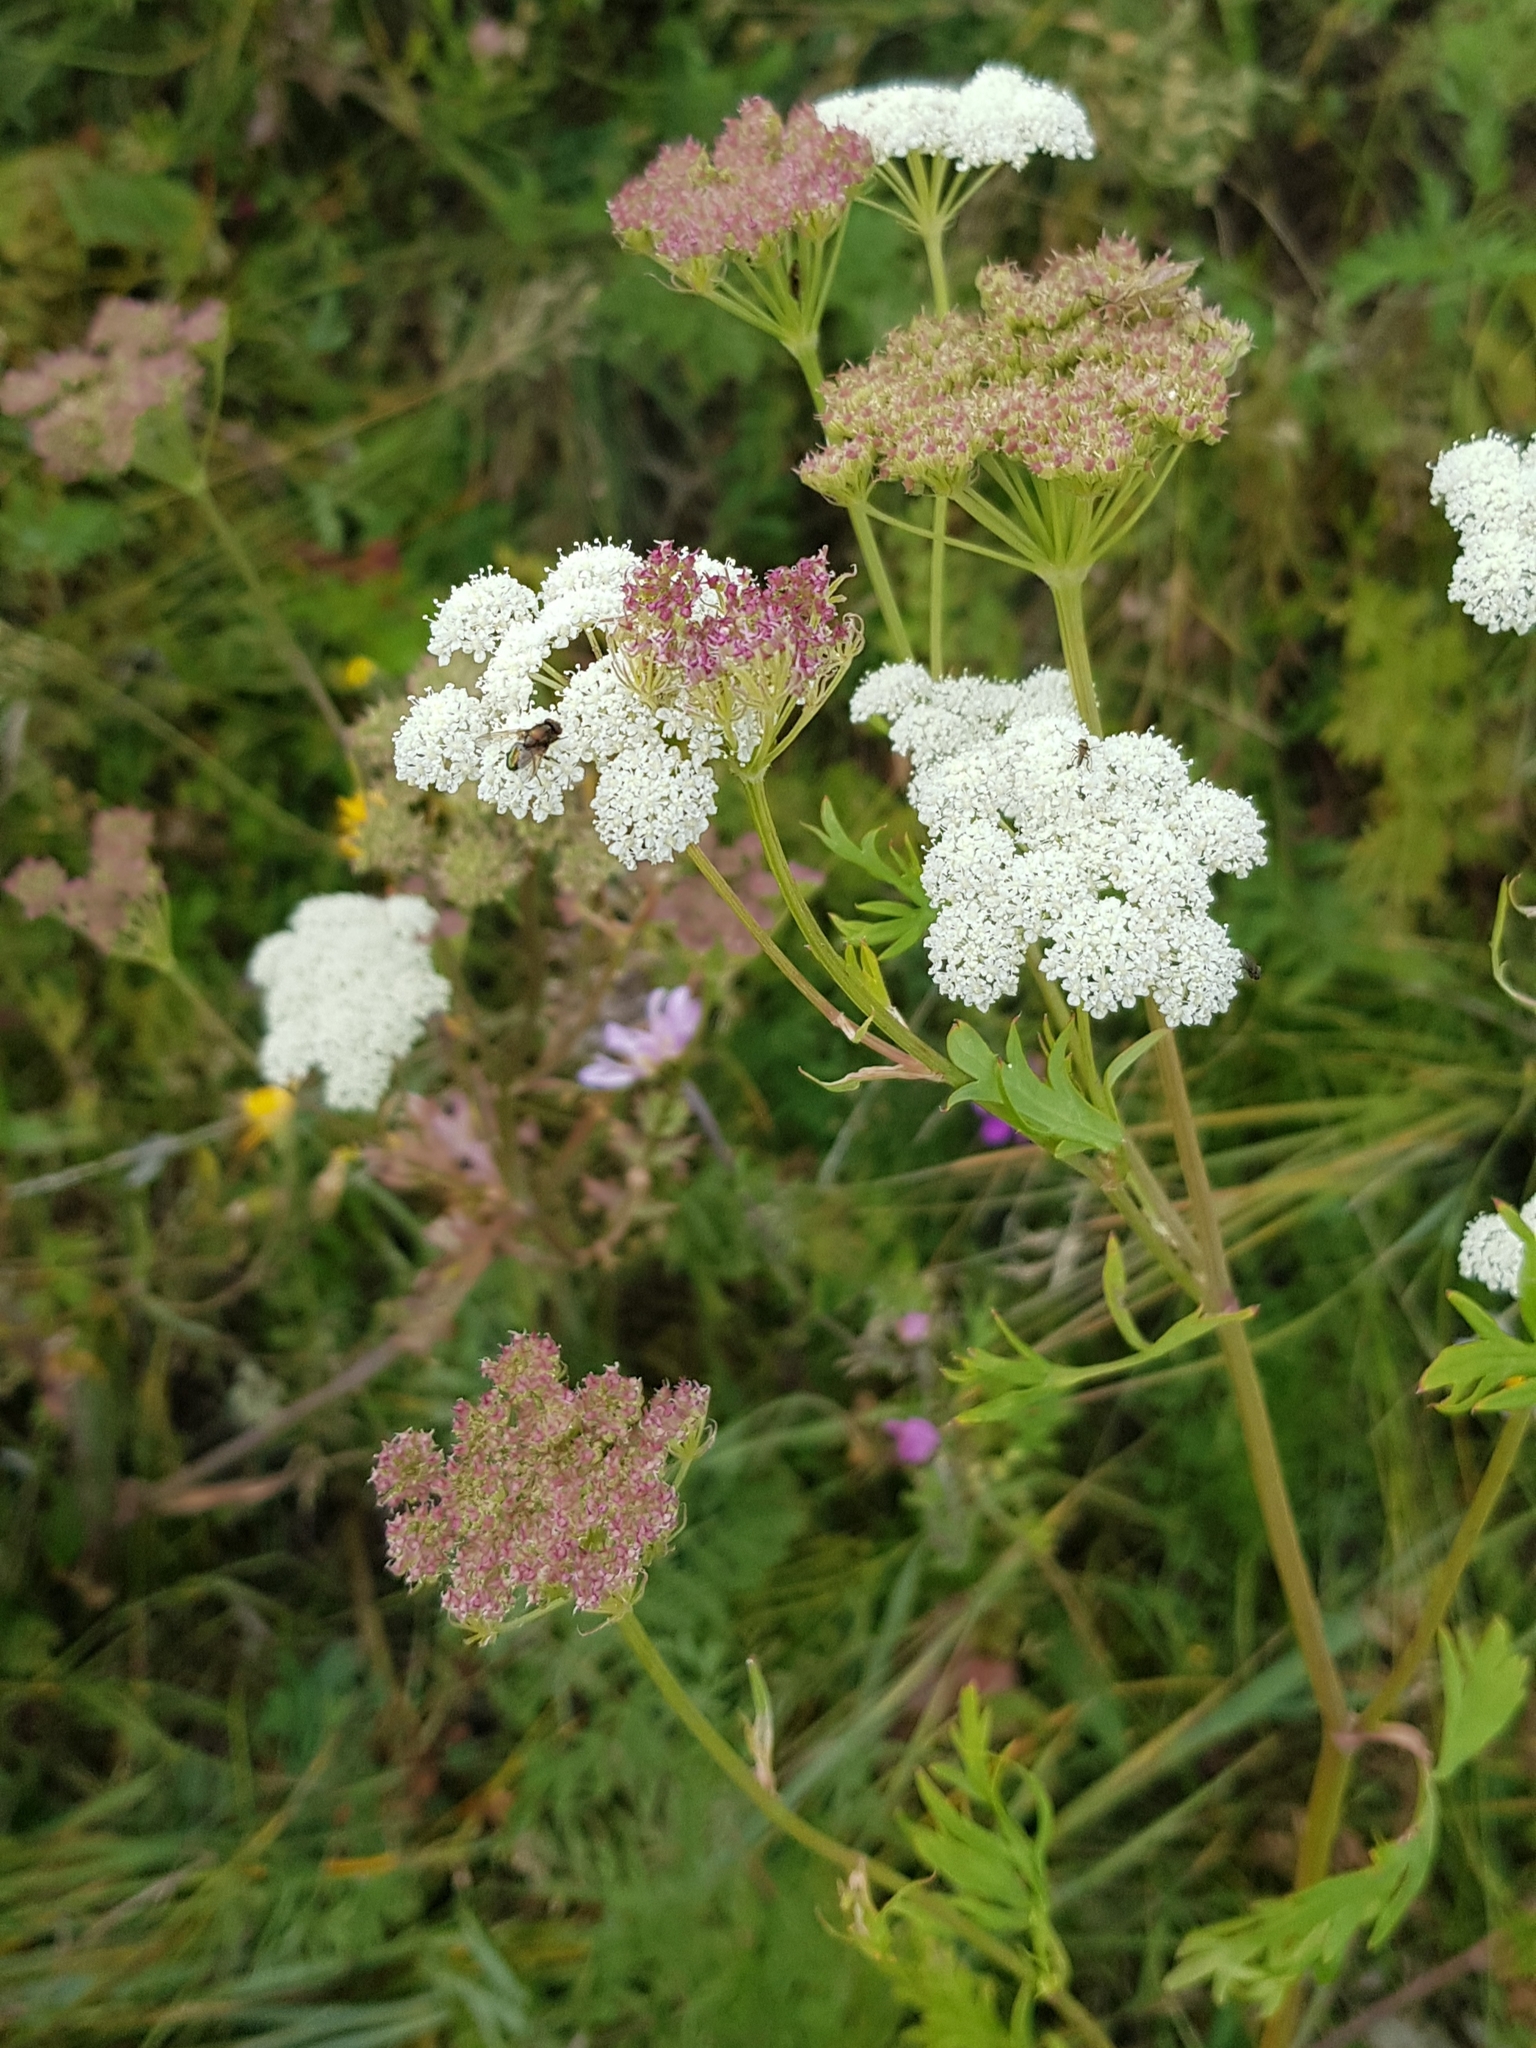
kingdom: Plantae
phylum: Tracheophyta
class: Magnoliopsida
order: Apiales
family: Apiaceae
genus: Kitagawia
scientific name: Kitagawia terebinthacea
